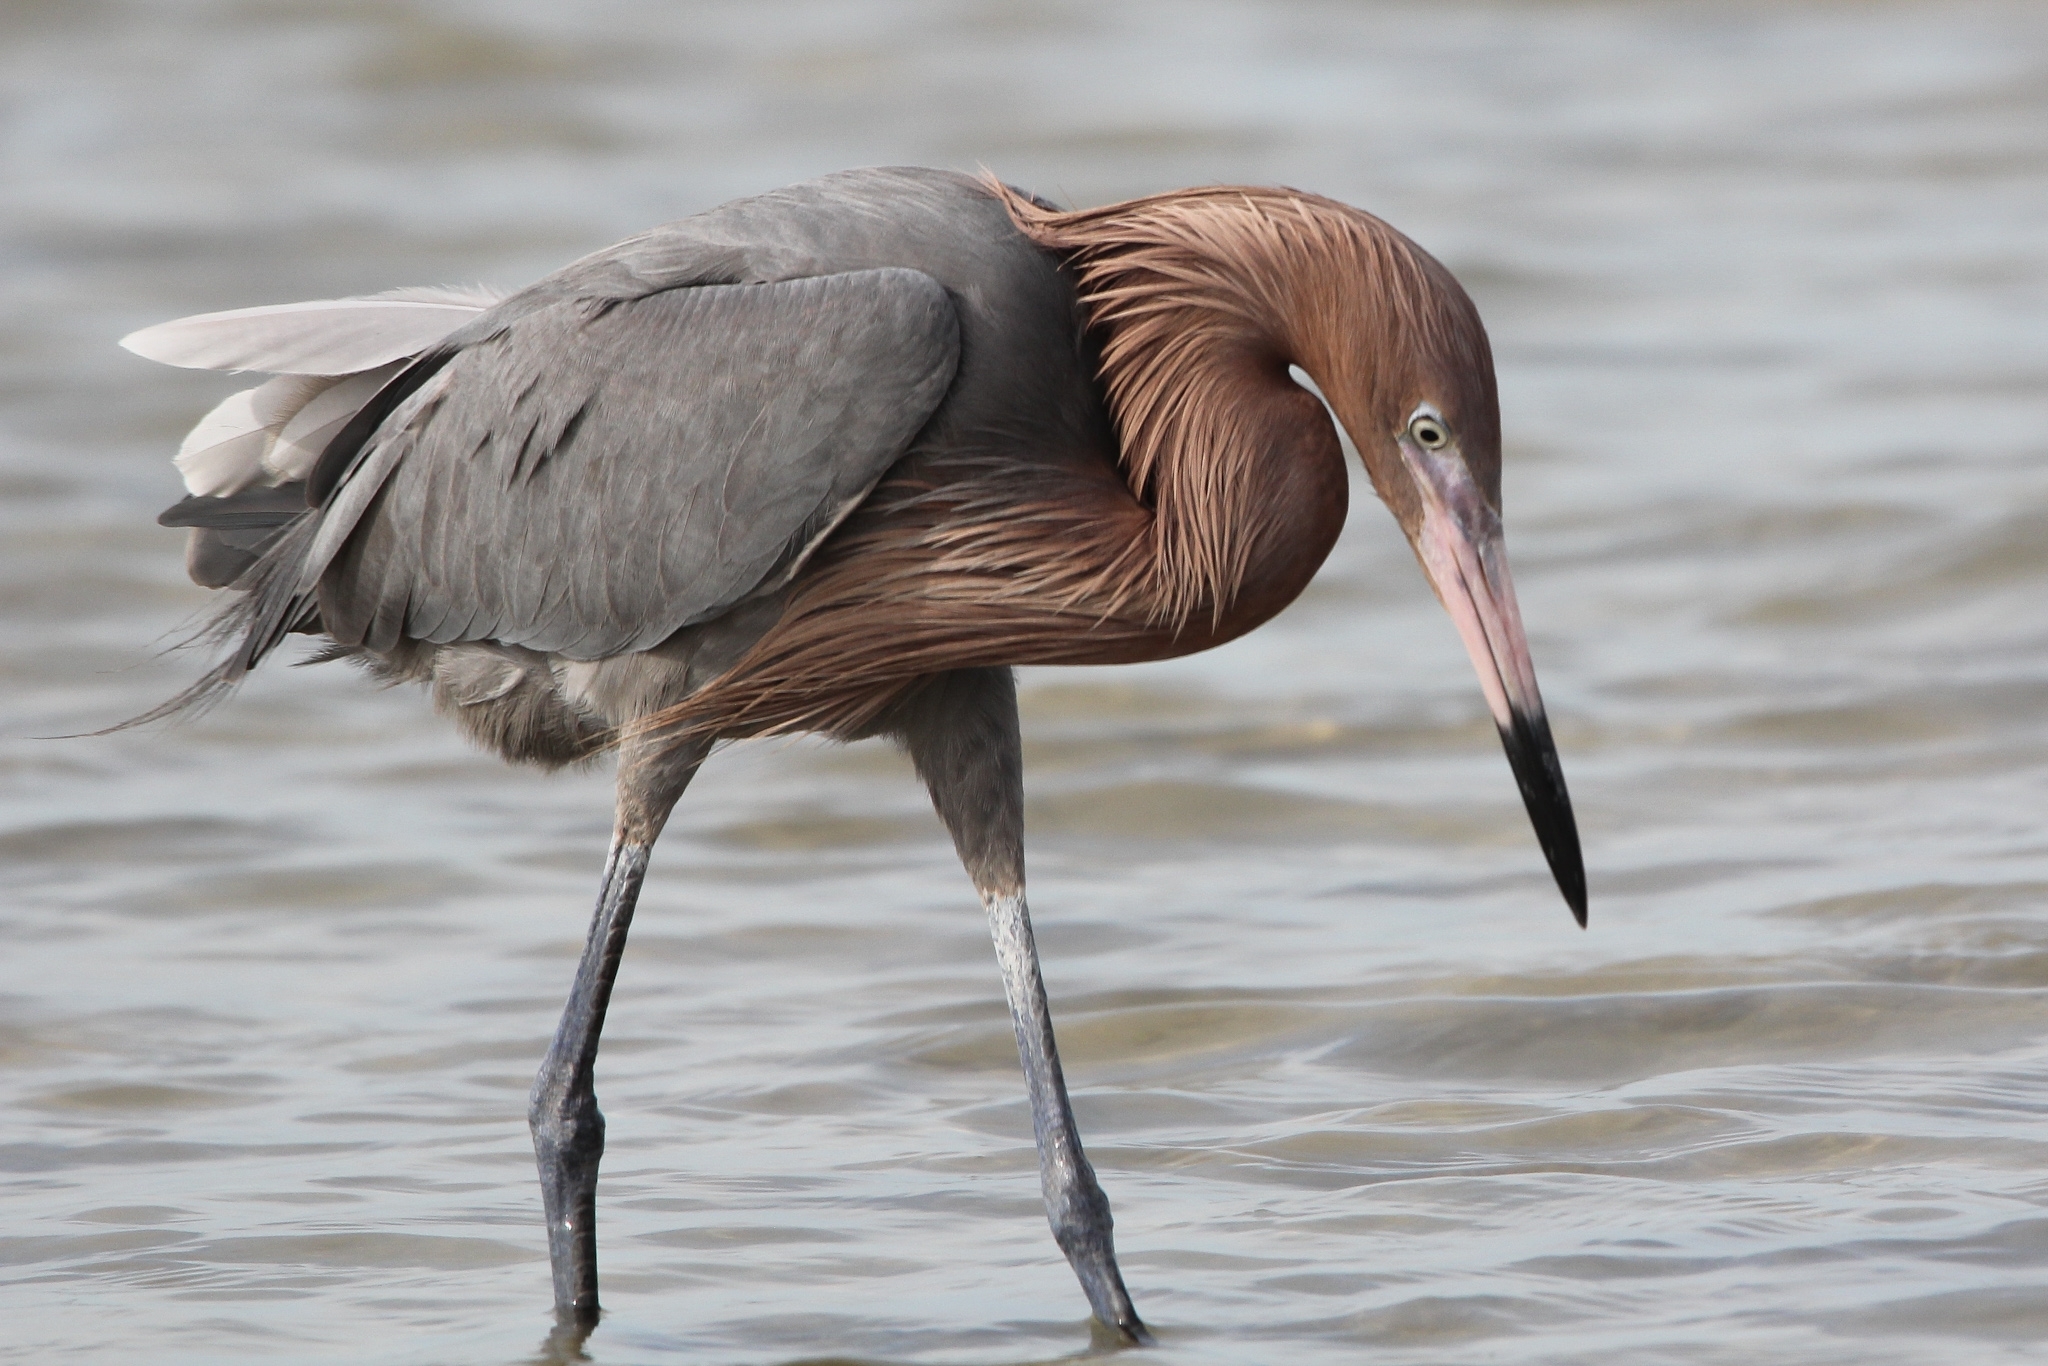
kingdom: Animalia
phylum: Chordata
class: Aves
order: Pelecaniformes
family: Ardeidae
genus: Egretta
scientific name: Egretta rufescens
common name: Reddish egret
